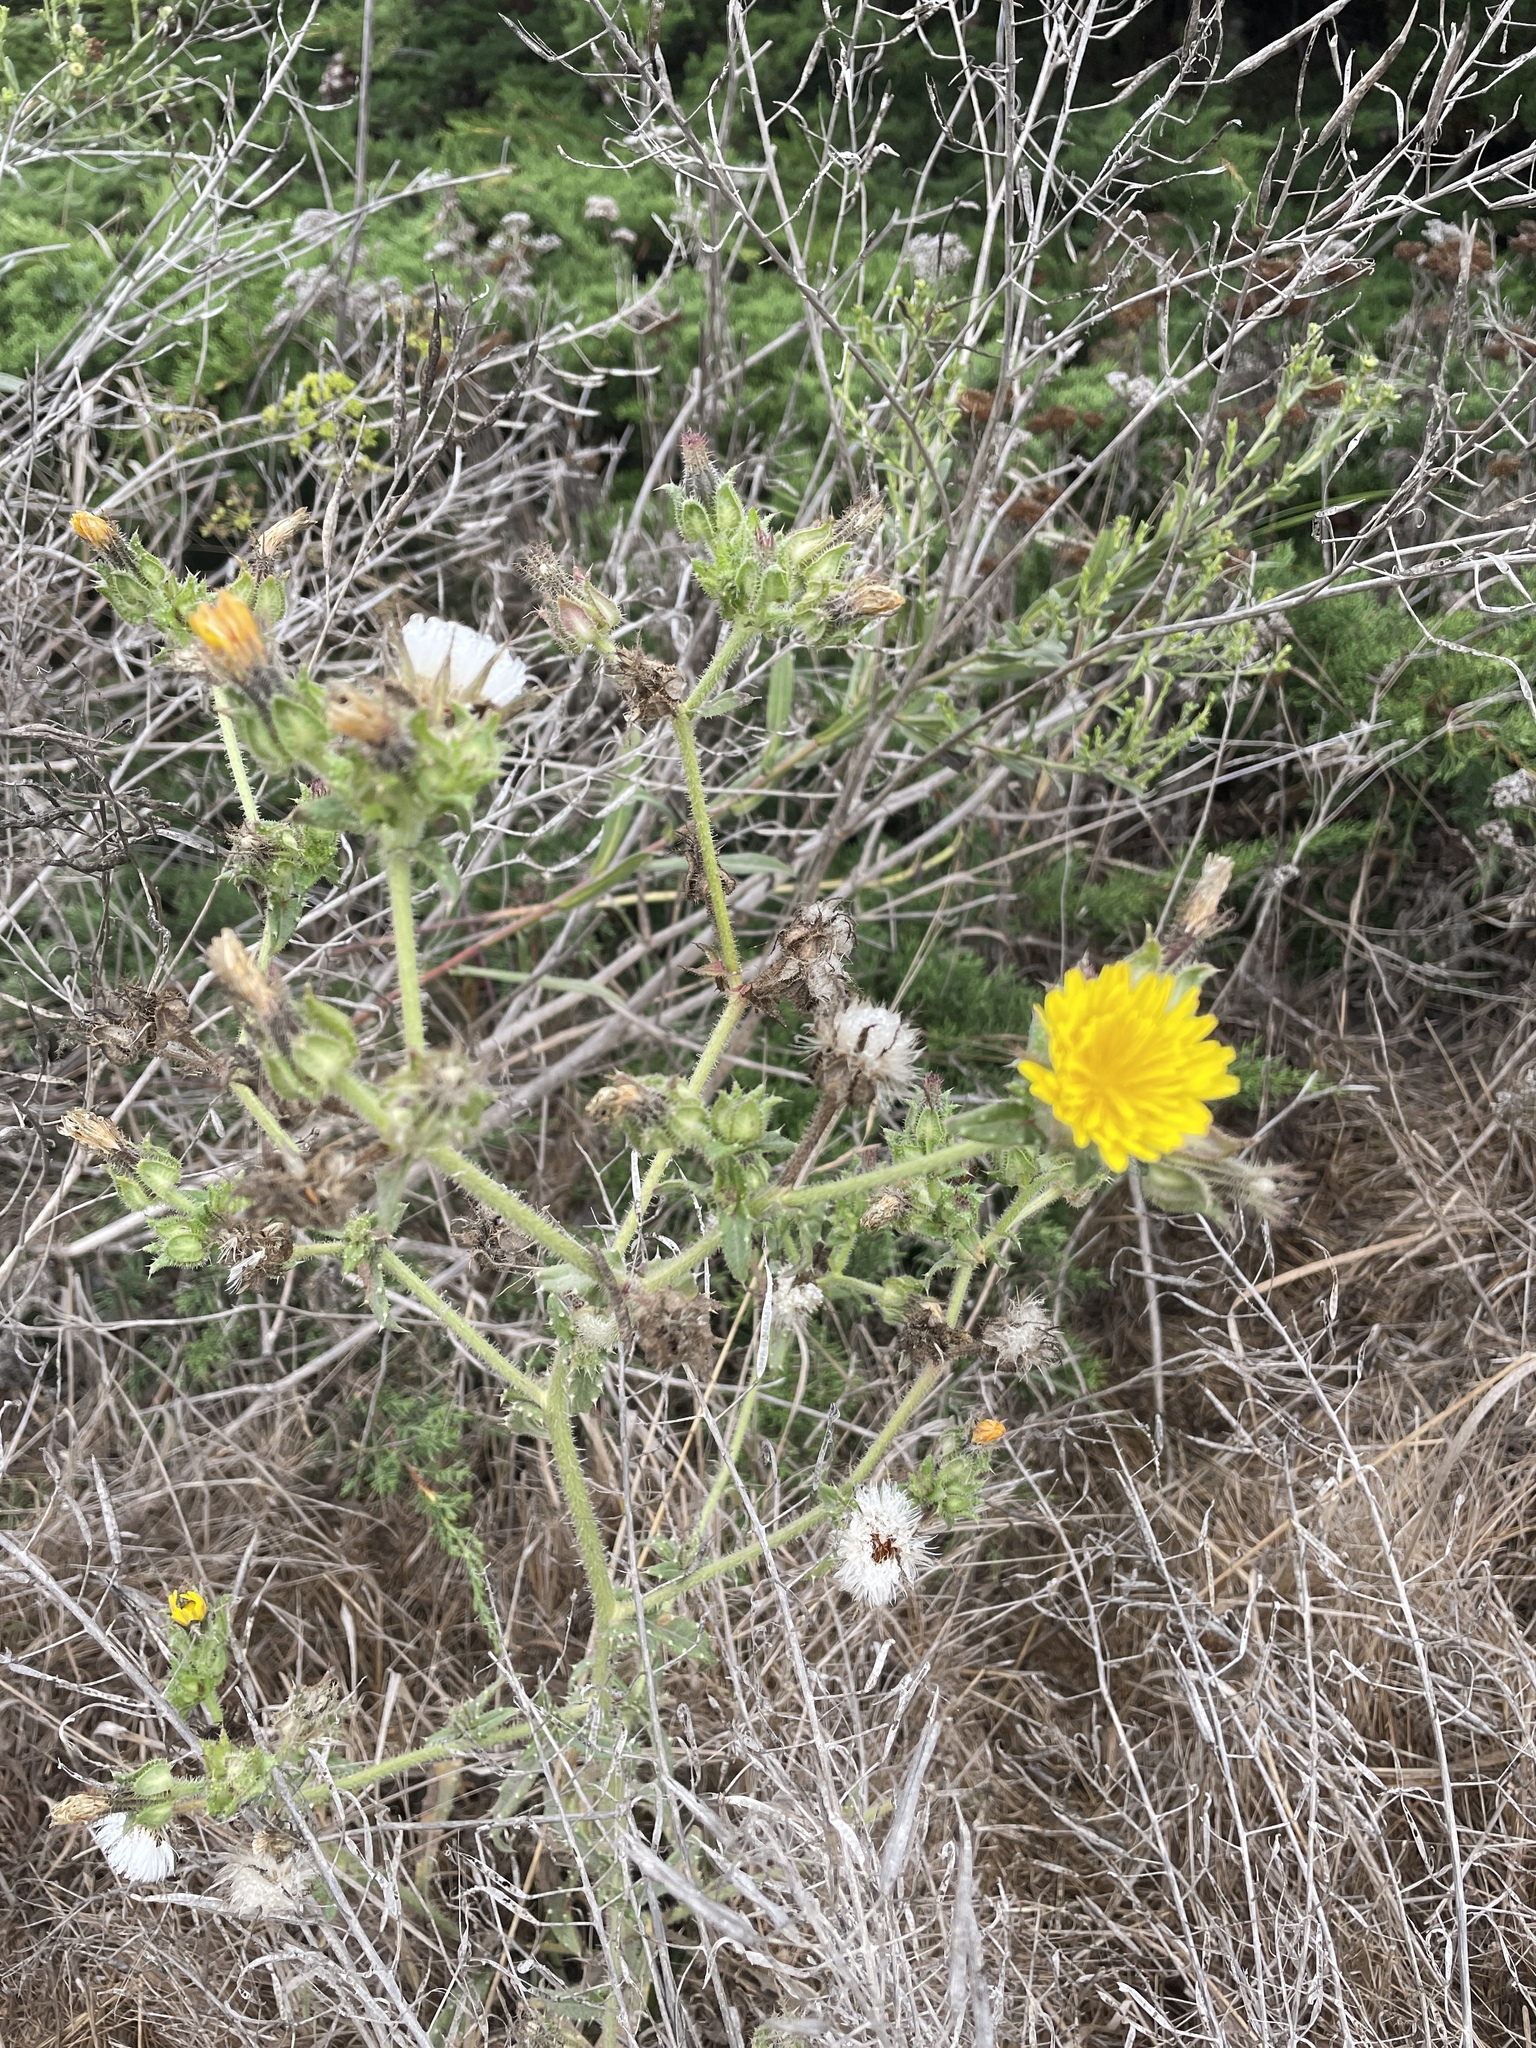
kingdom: Plantae
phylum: Tracheophyta
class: Magnoliopsida
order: Asterales
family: Asteraceae
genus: Helminthotheca
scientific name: Helminthotheca echioides
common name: Ox-tongue
